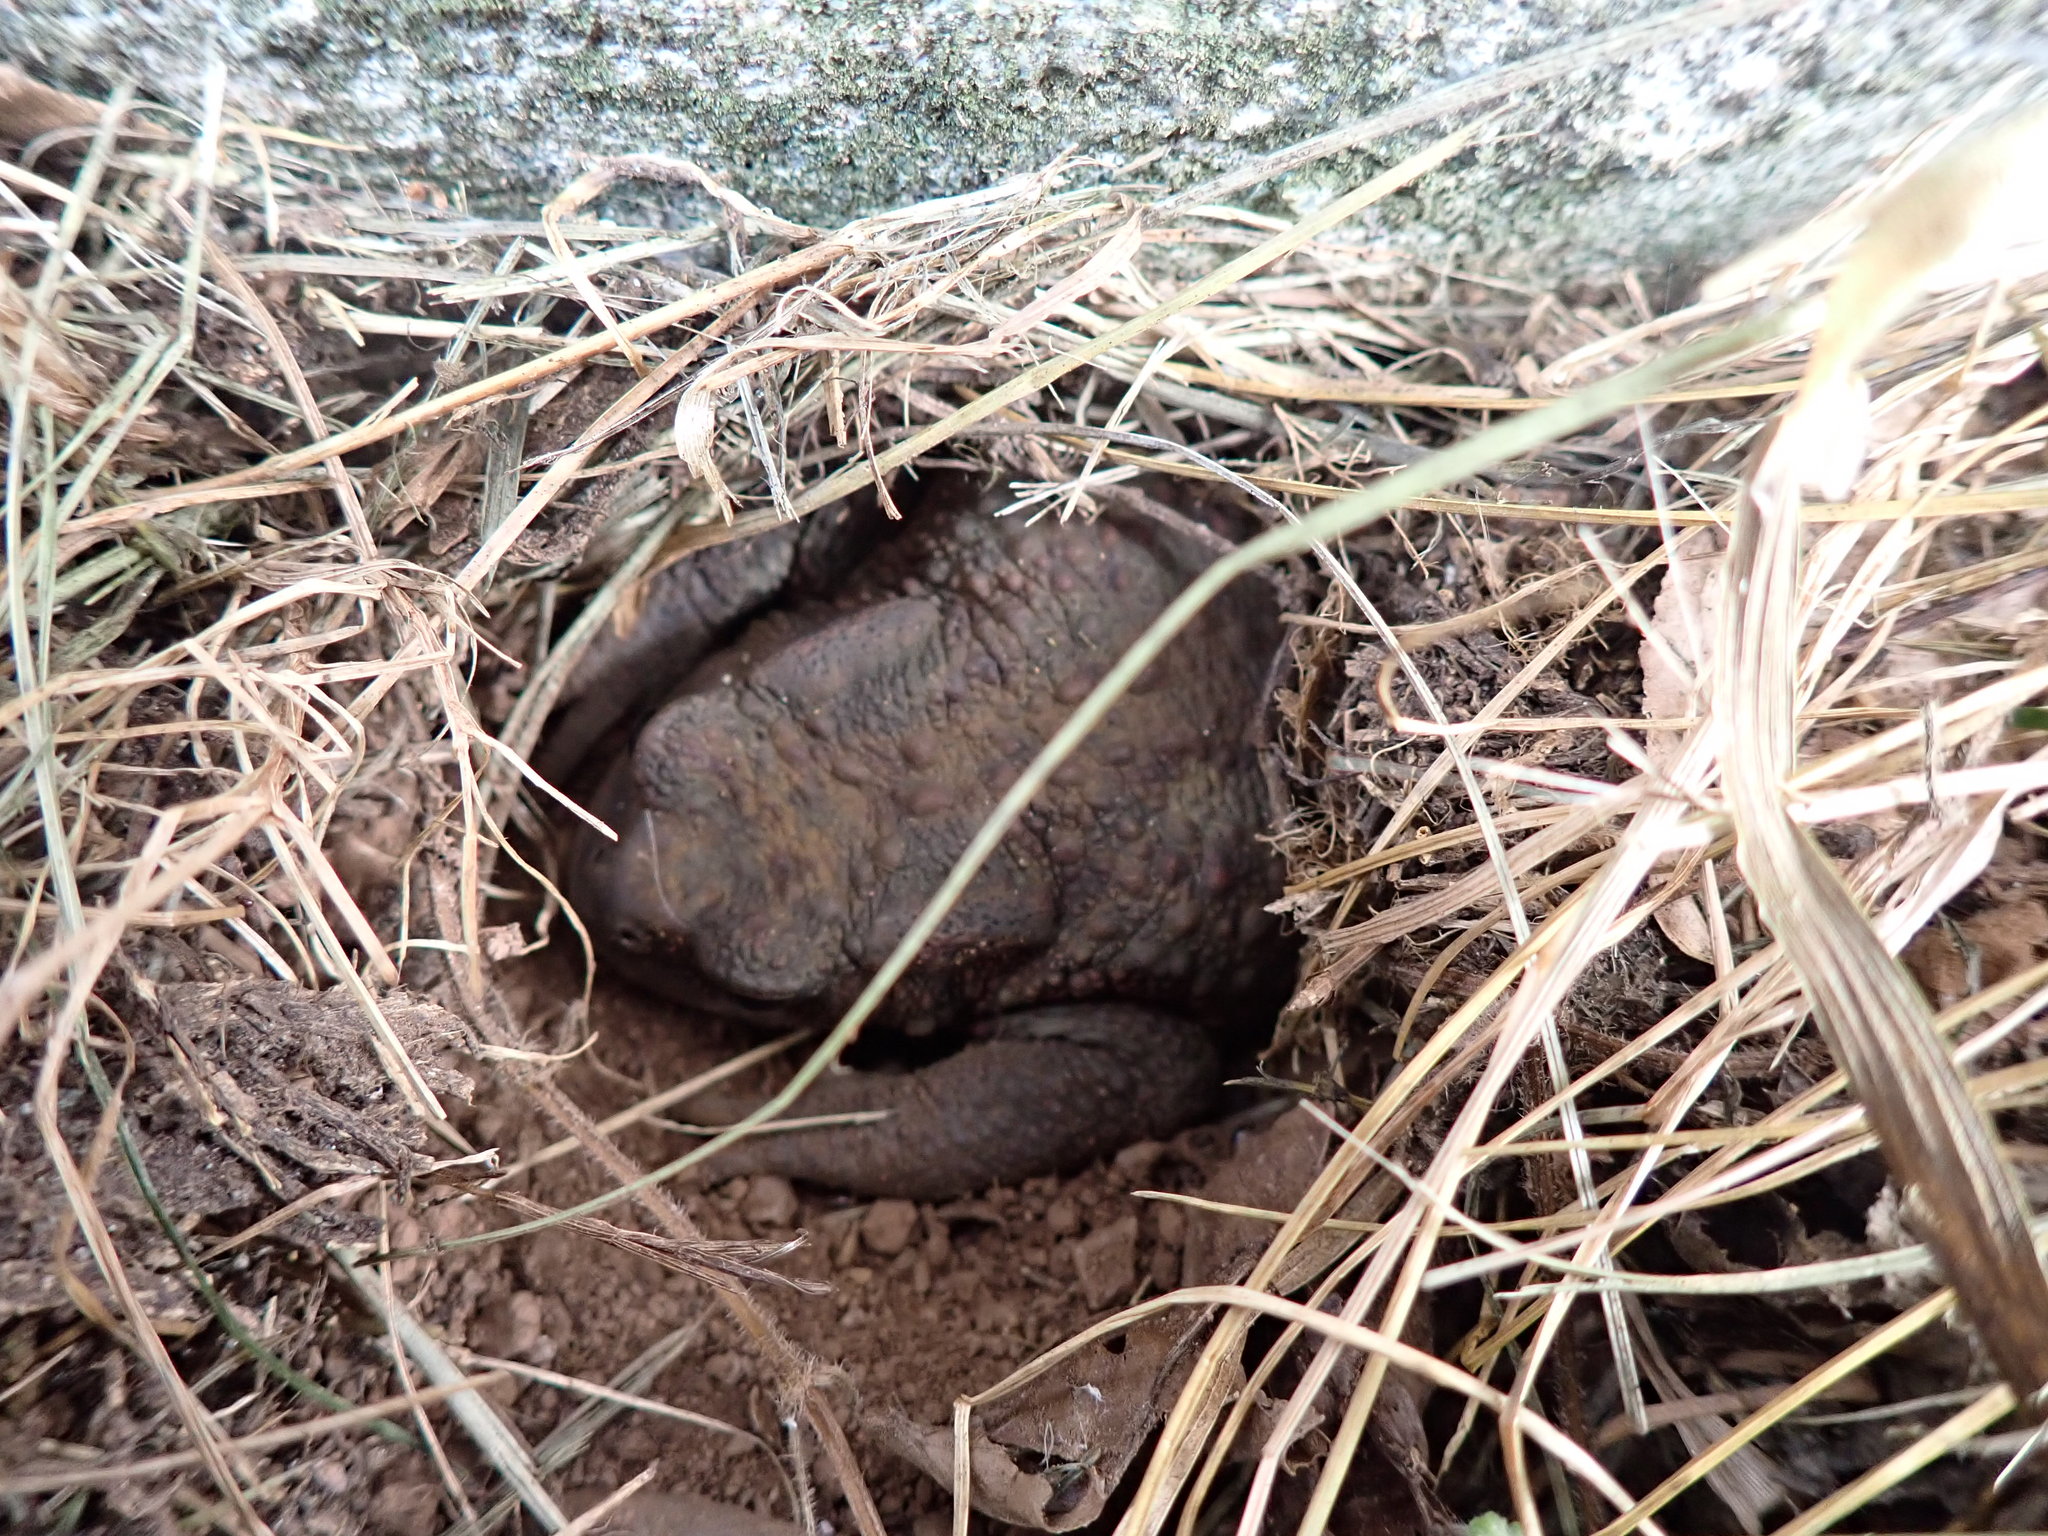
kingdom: Animalia
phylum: Chordata
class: Amphibia
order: Anura
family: Bufonidae
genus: Bufo
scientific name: Bufo bufo
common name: Common toad
